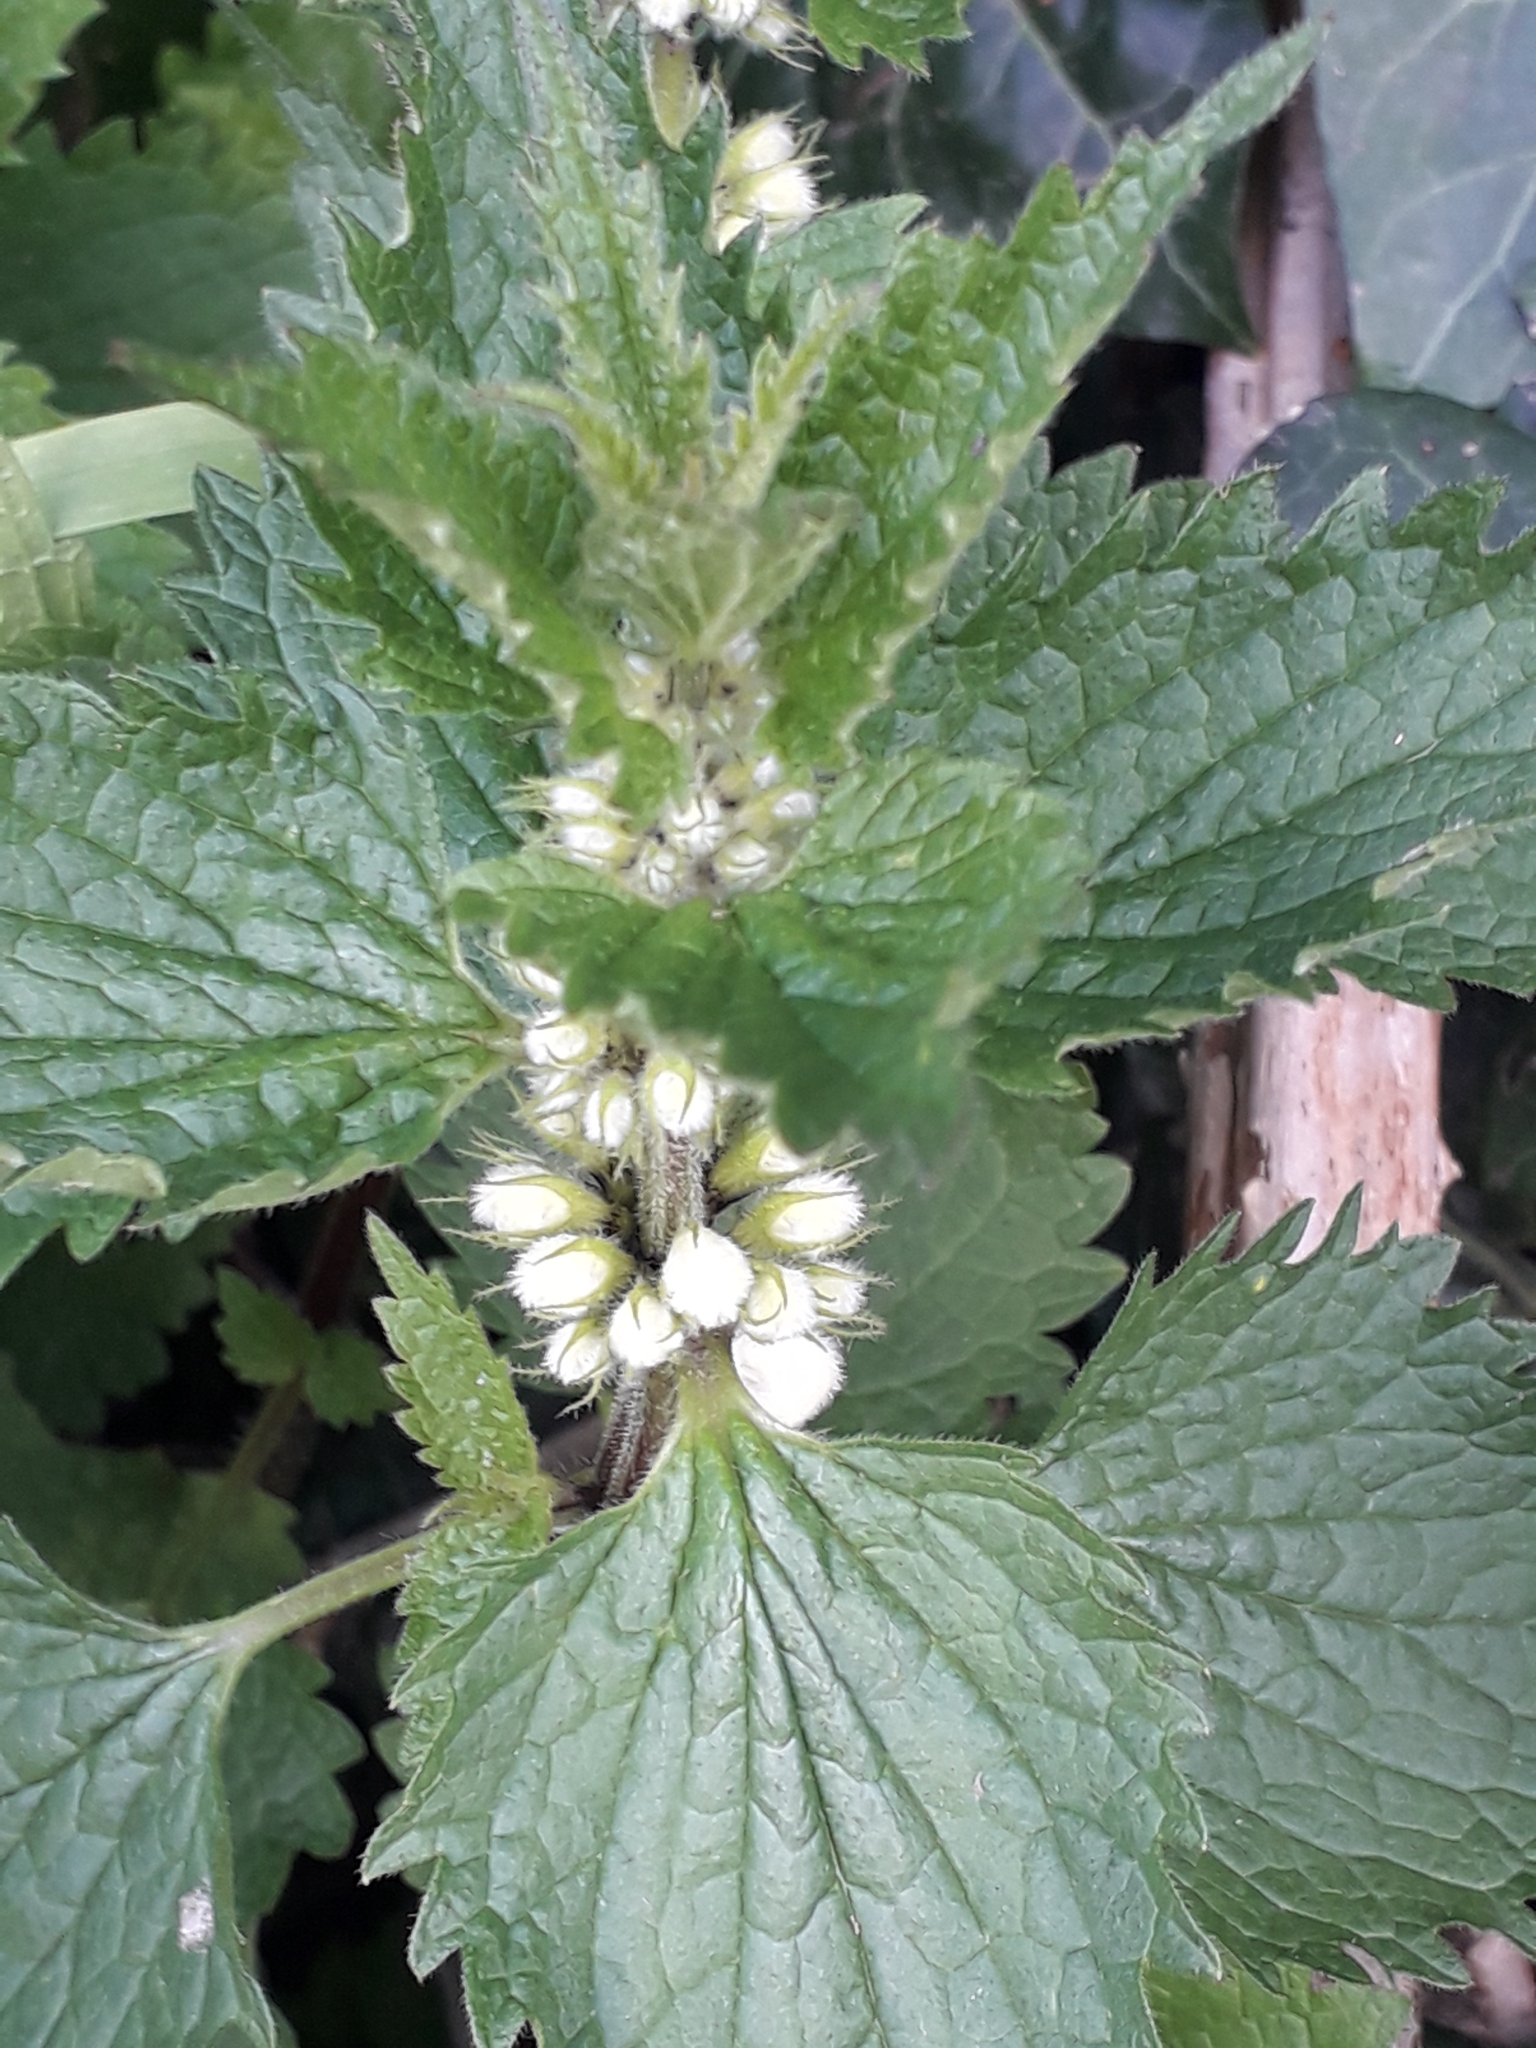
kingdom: Plantae
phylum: Tracheophyta
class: Magnoliopsida
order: Lamiales
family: Lamiaceae
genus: Lamium
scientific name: Lamium album
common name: White dead-nettle
